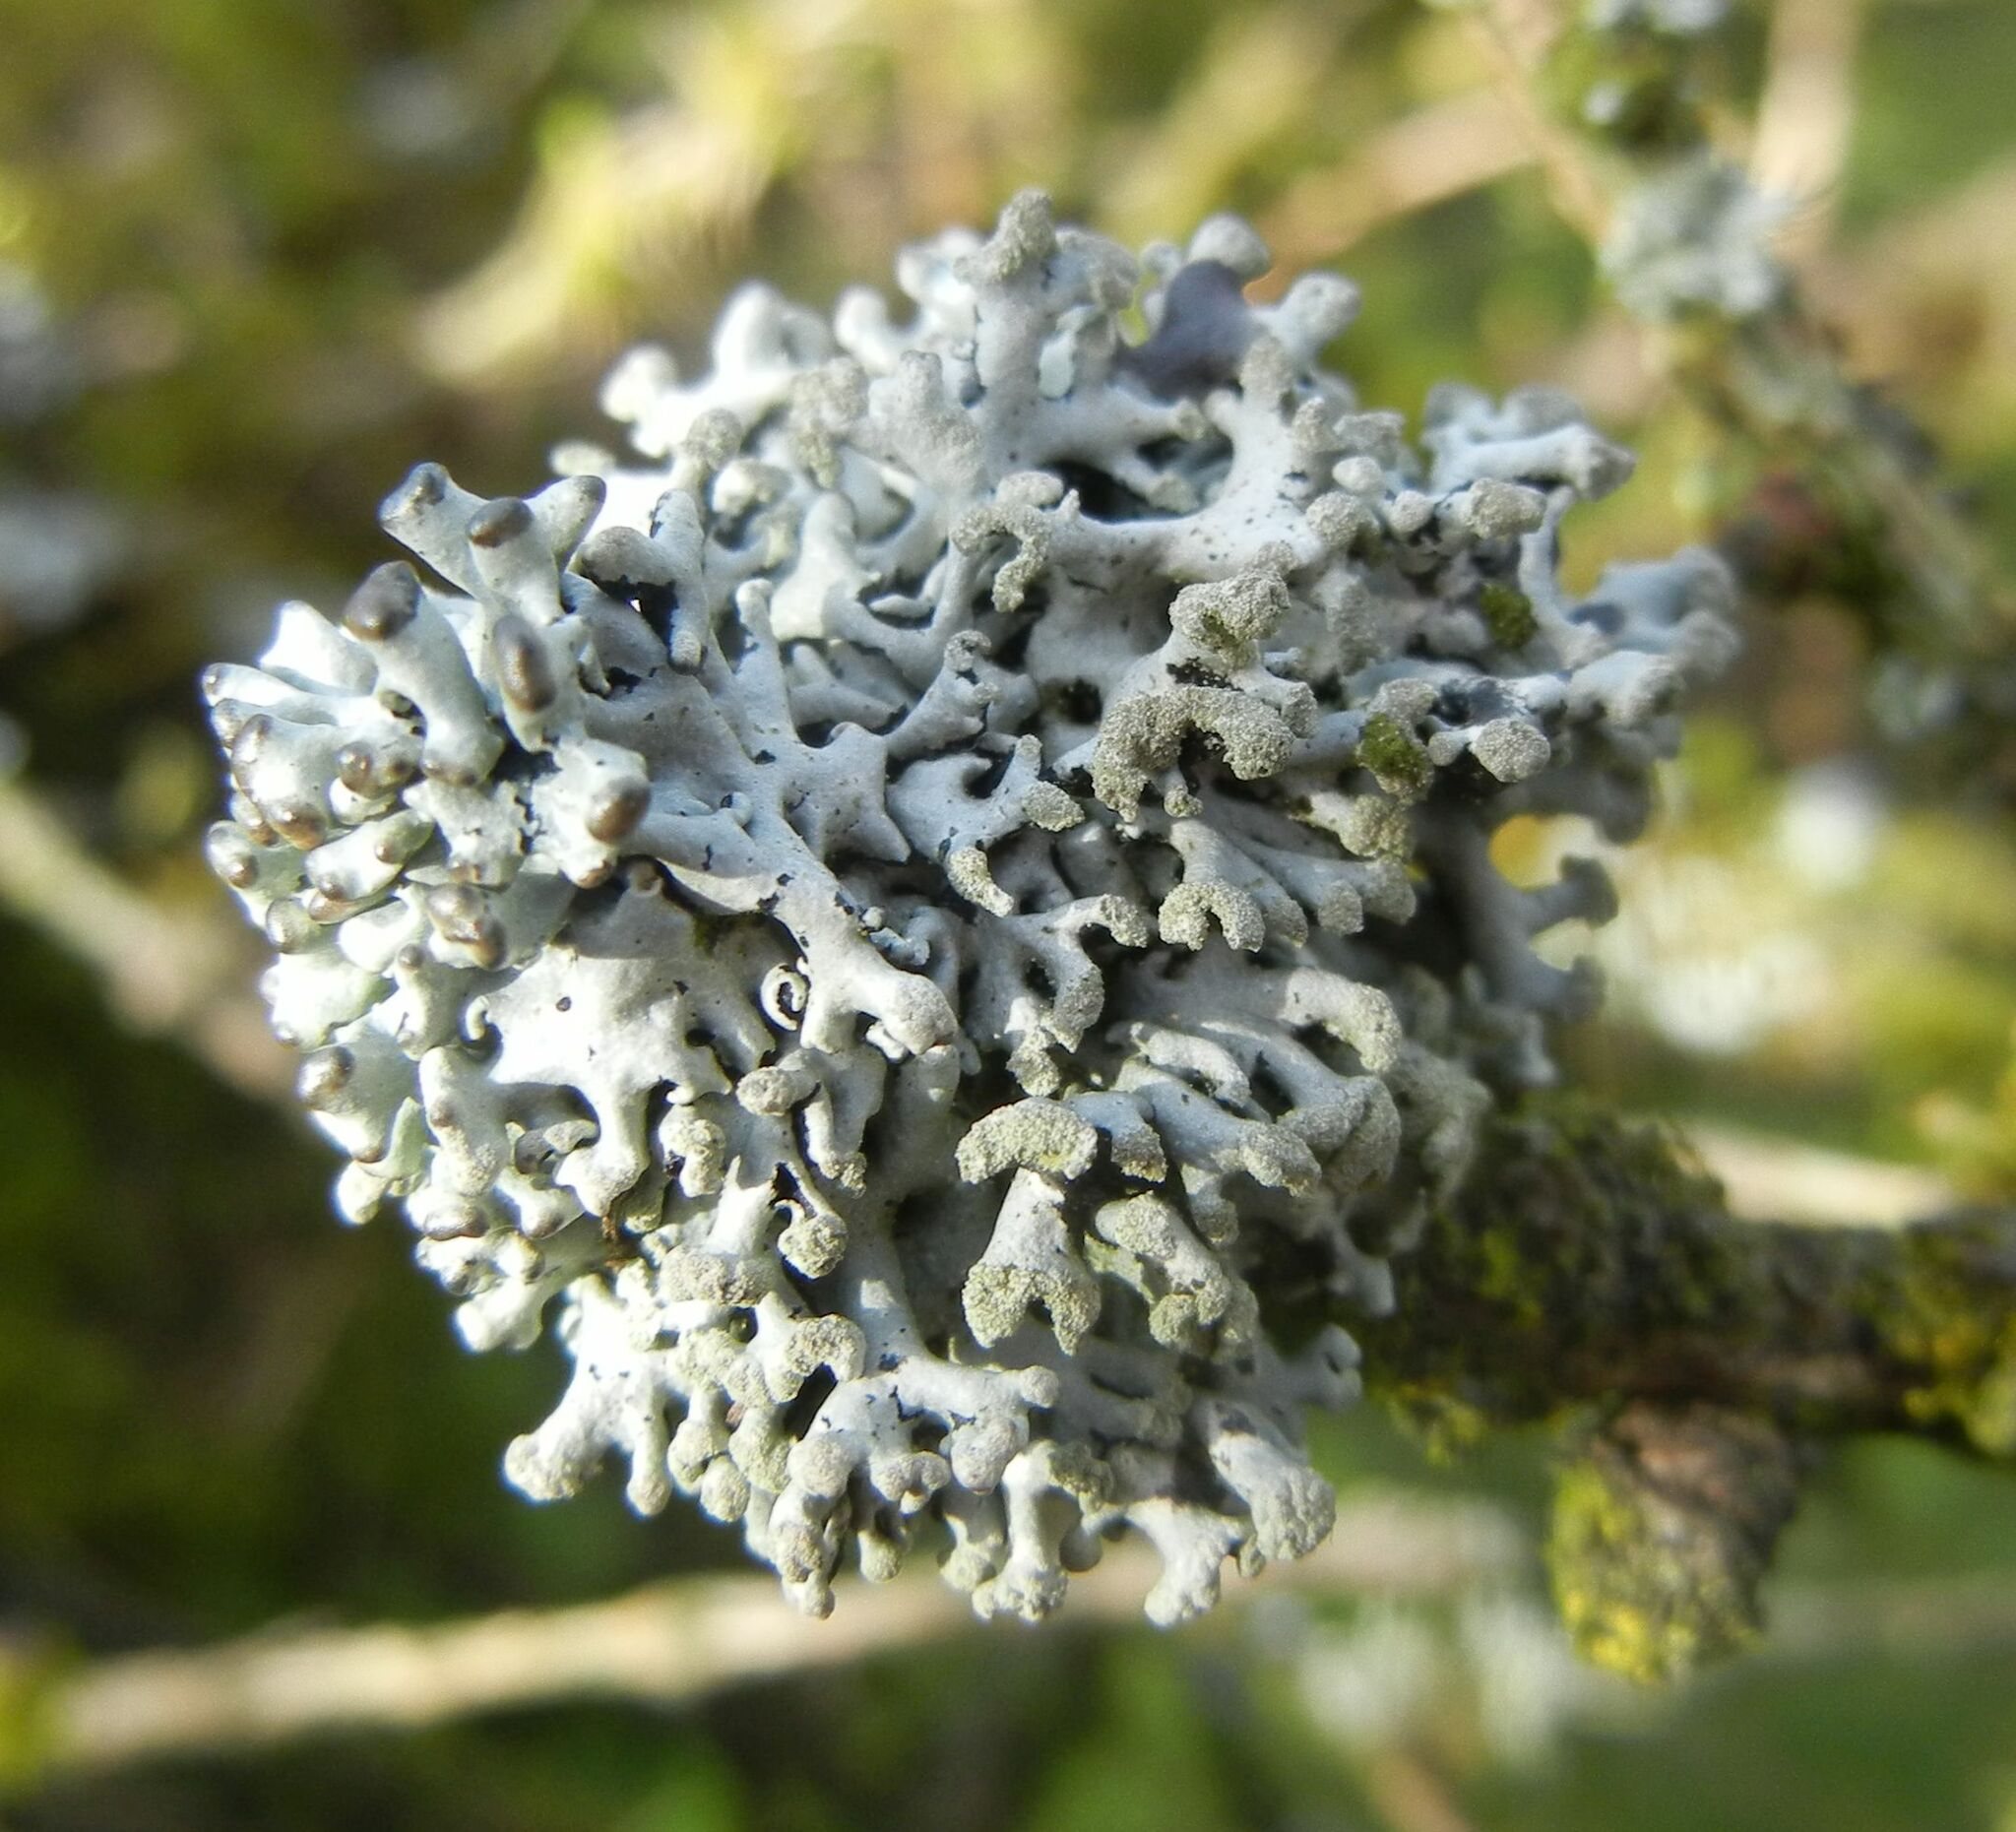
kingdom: Fungi
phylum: Ascomycota
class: Lecanoromycetes
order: Lecanorales
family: Parmeliaceae
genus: Hypogymnia
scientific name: Hypogymnia tubulosa
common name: Powder-headed tube lichen
